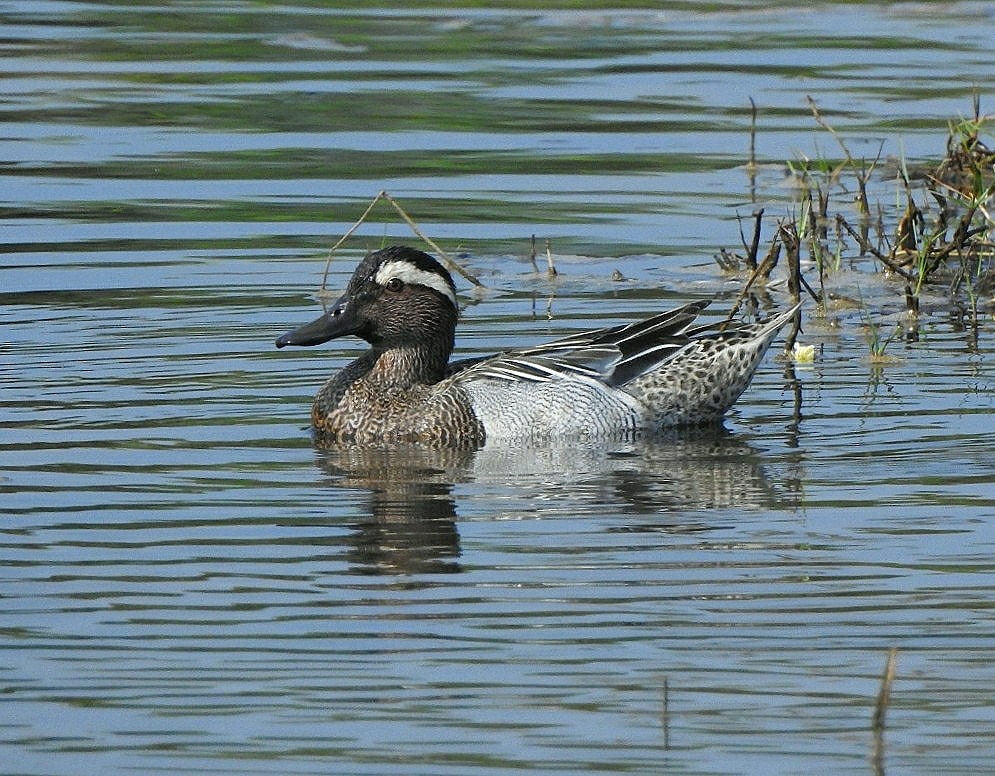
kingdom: Animalia
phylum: Chordata
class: Aves
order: Anseriformes
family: Anatidae
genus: Spatula
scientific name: Spatula querquedula
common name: Garganey
